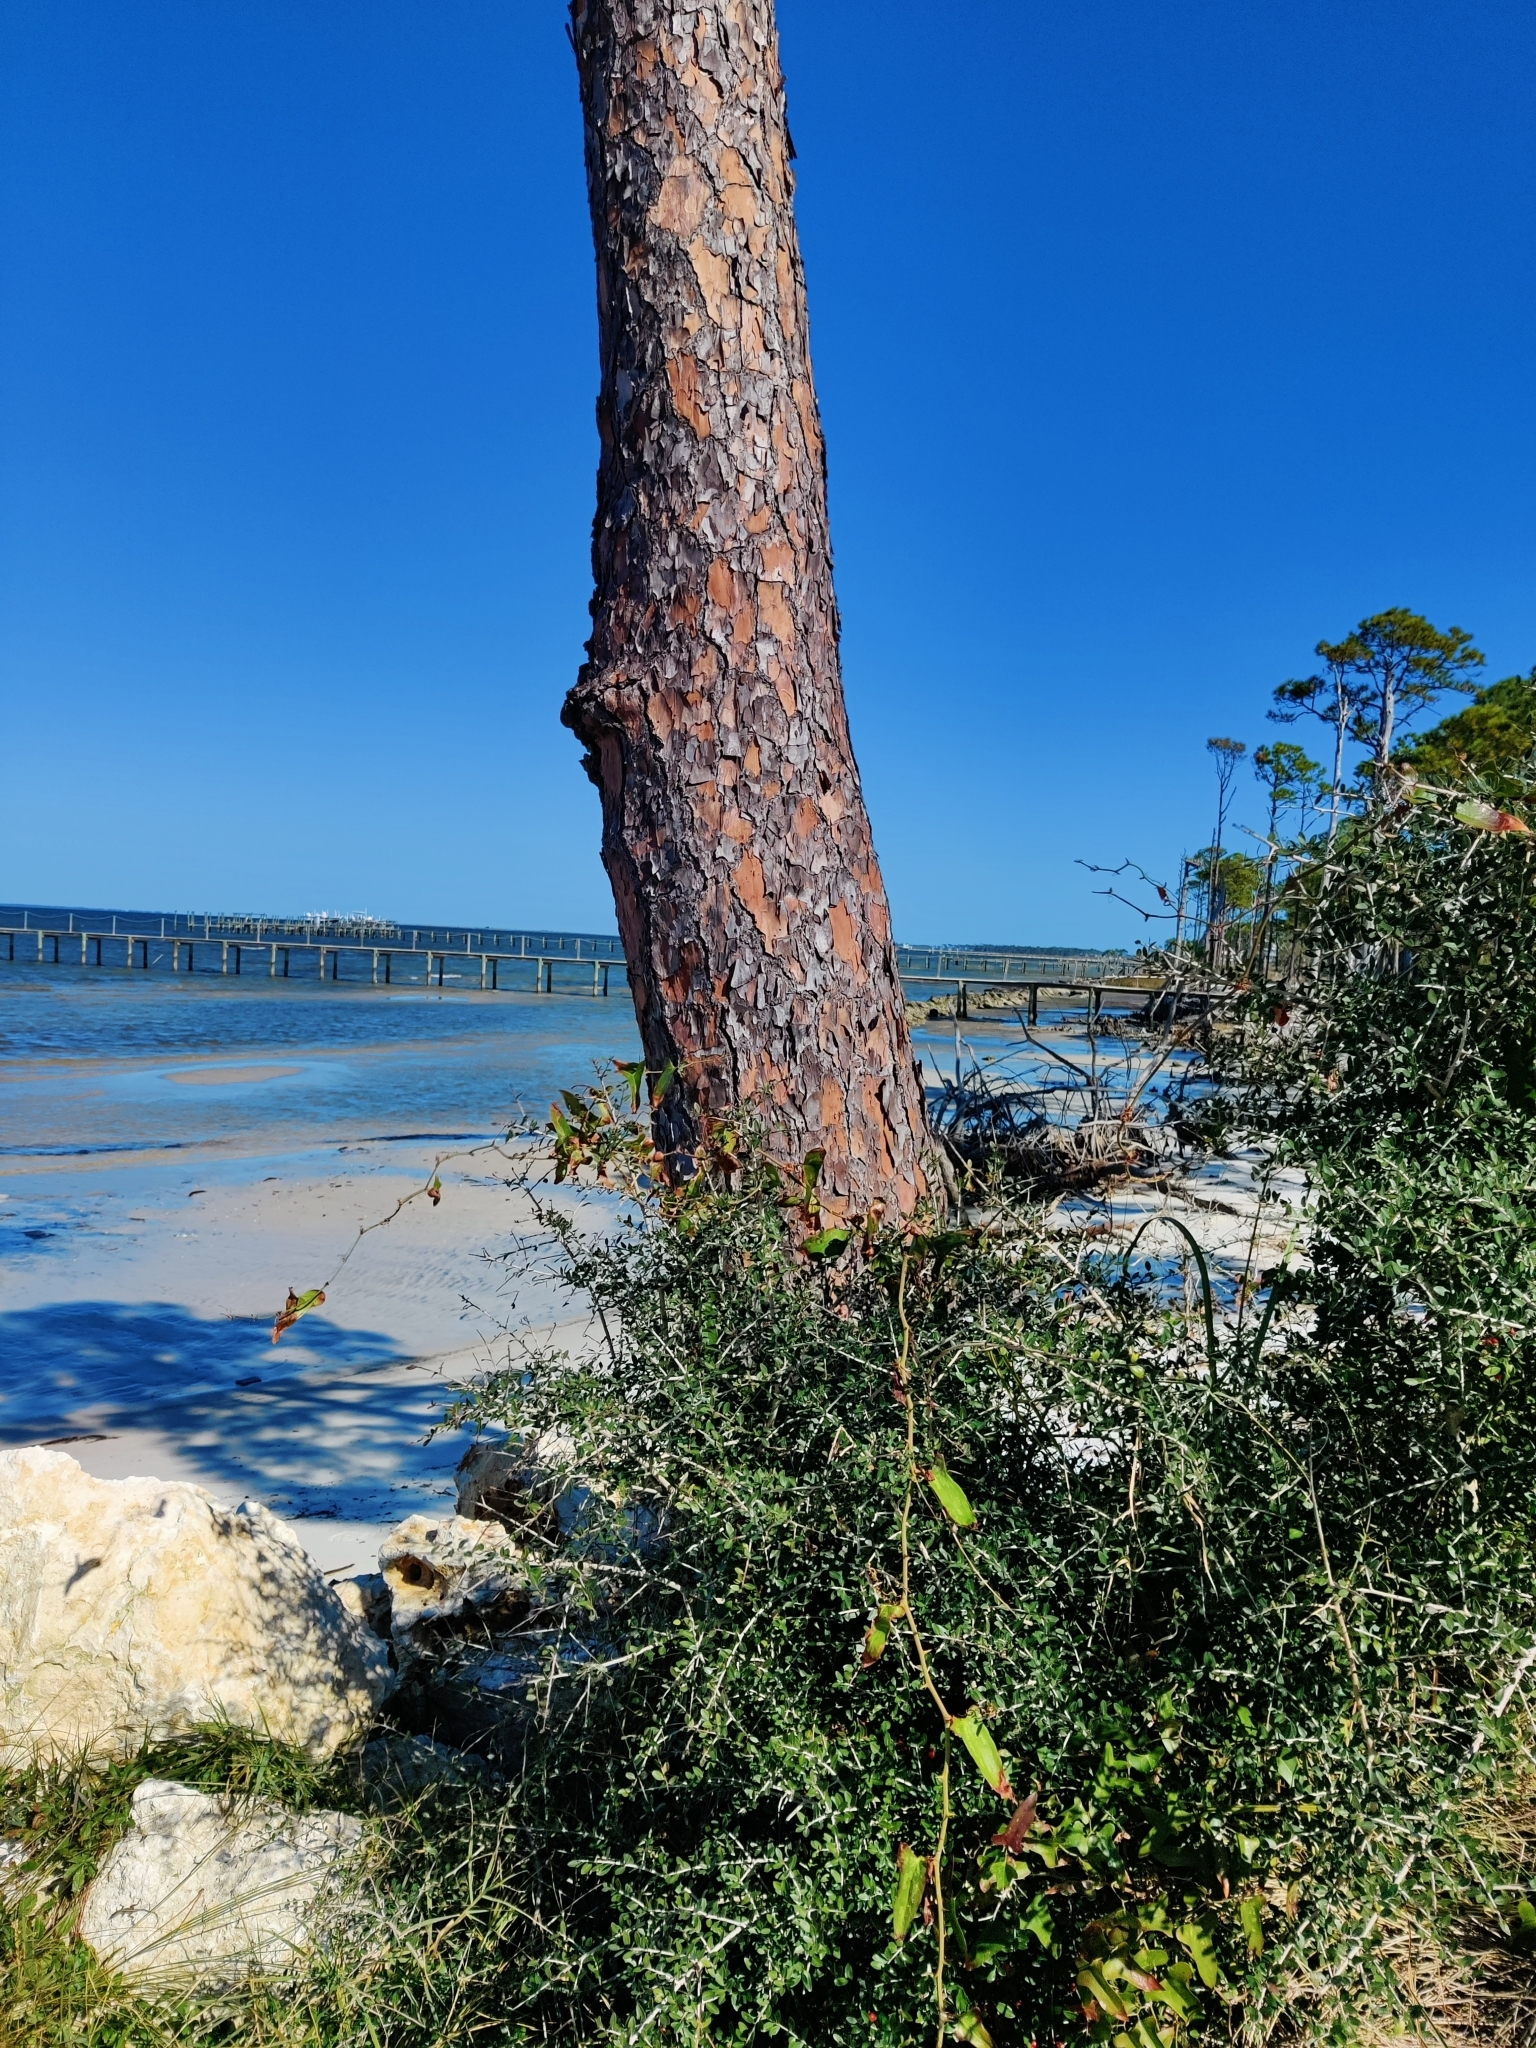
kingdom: Plantae
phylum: Tracheophyta
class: Pinopsida
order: Pinales
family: Pinaceae
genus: Pinus
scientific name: Pinus elliottii
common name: Slash pine
